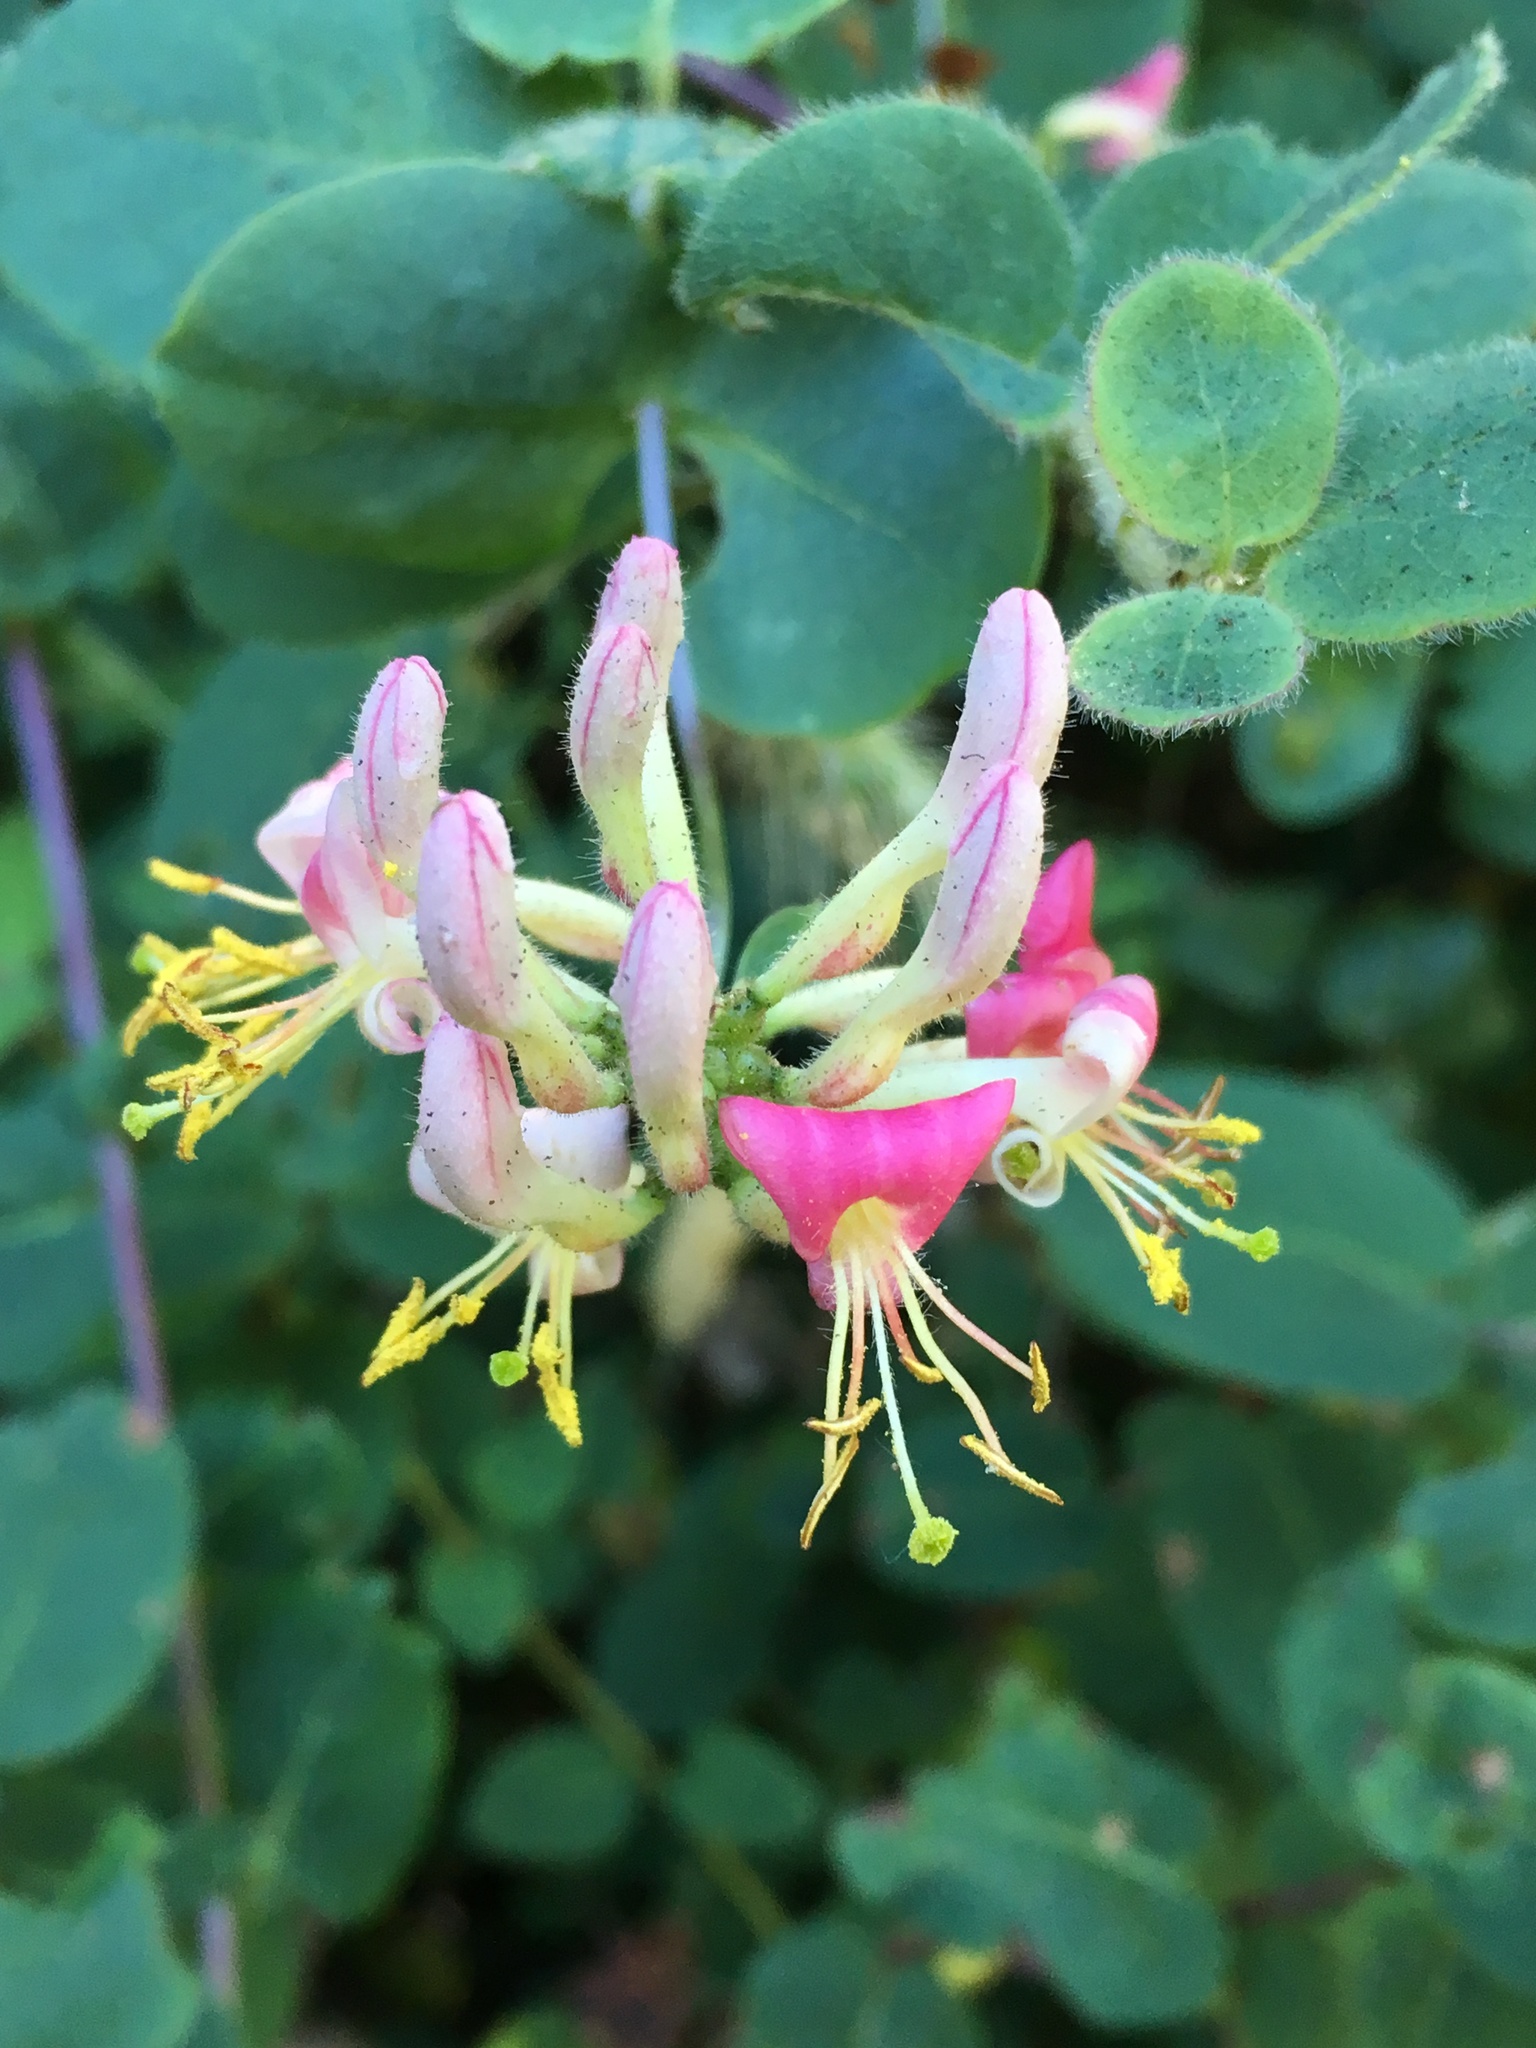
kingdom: Plantae
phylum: Tracheophyta
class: Magnoliopsida
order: Dipsacales
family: Caprifoliaceae
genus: Lonicera
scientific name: Lonicera hispidula
